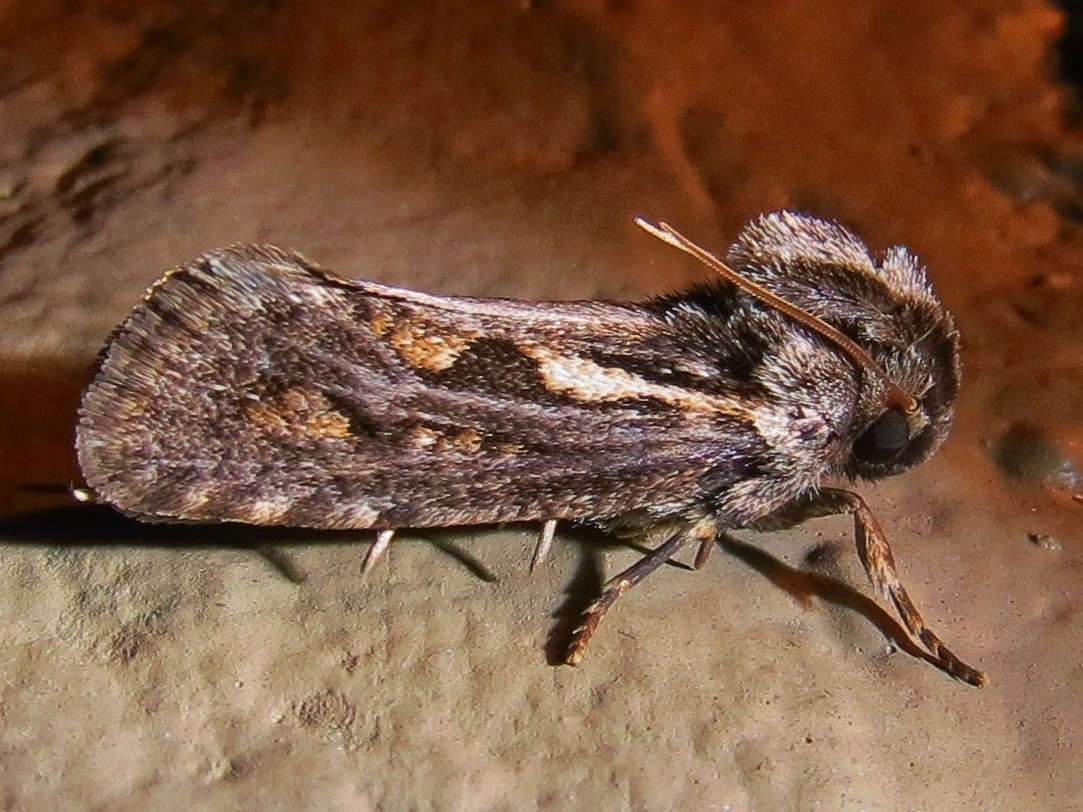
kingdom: Animalia
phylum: Arthropoda
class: Insecta
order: Lepidoptera
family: Tineidae
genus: Acrolophus
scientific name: Acrolophus popeanella
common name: Clemens' grass tubeworm moth
